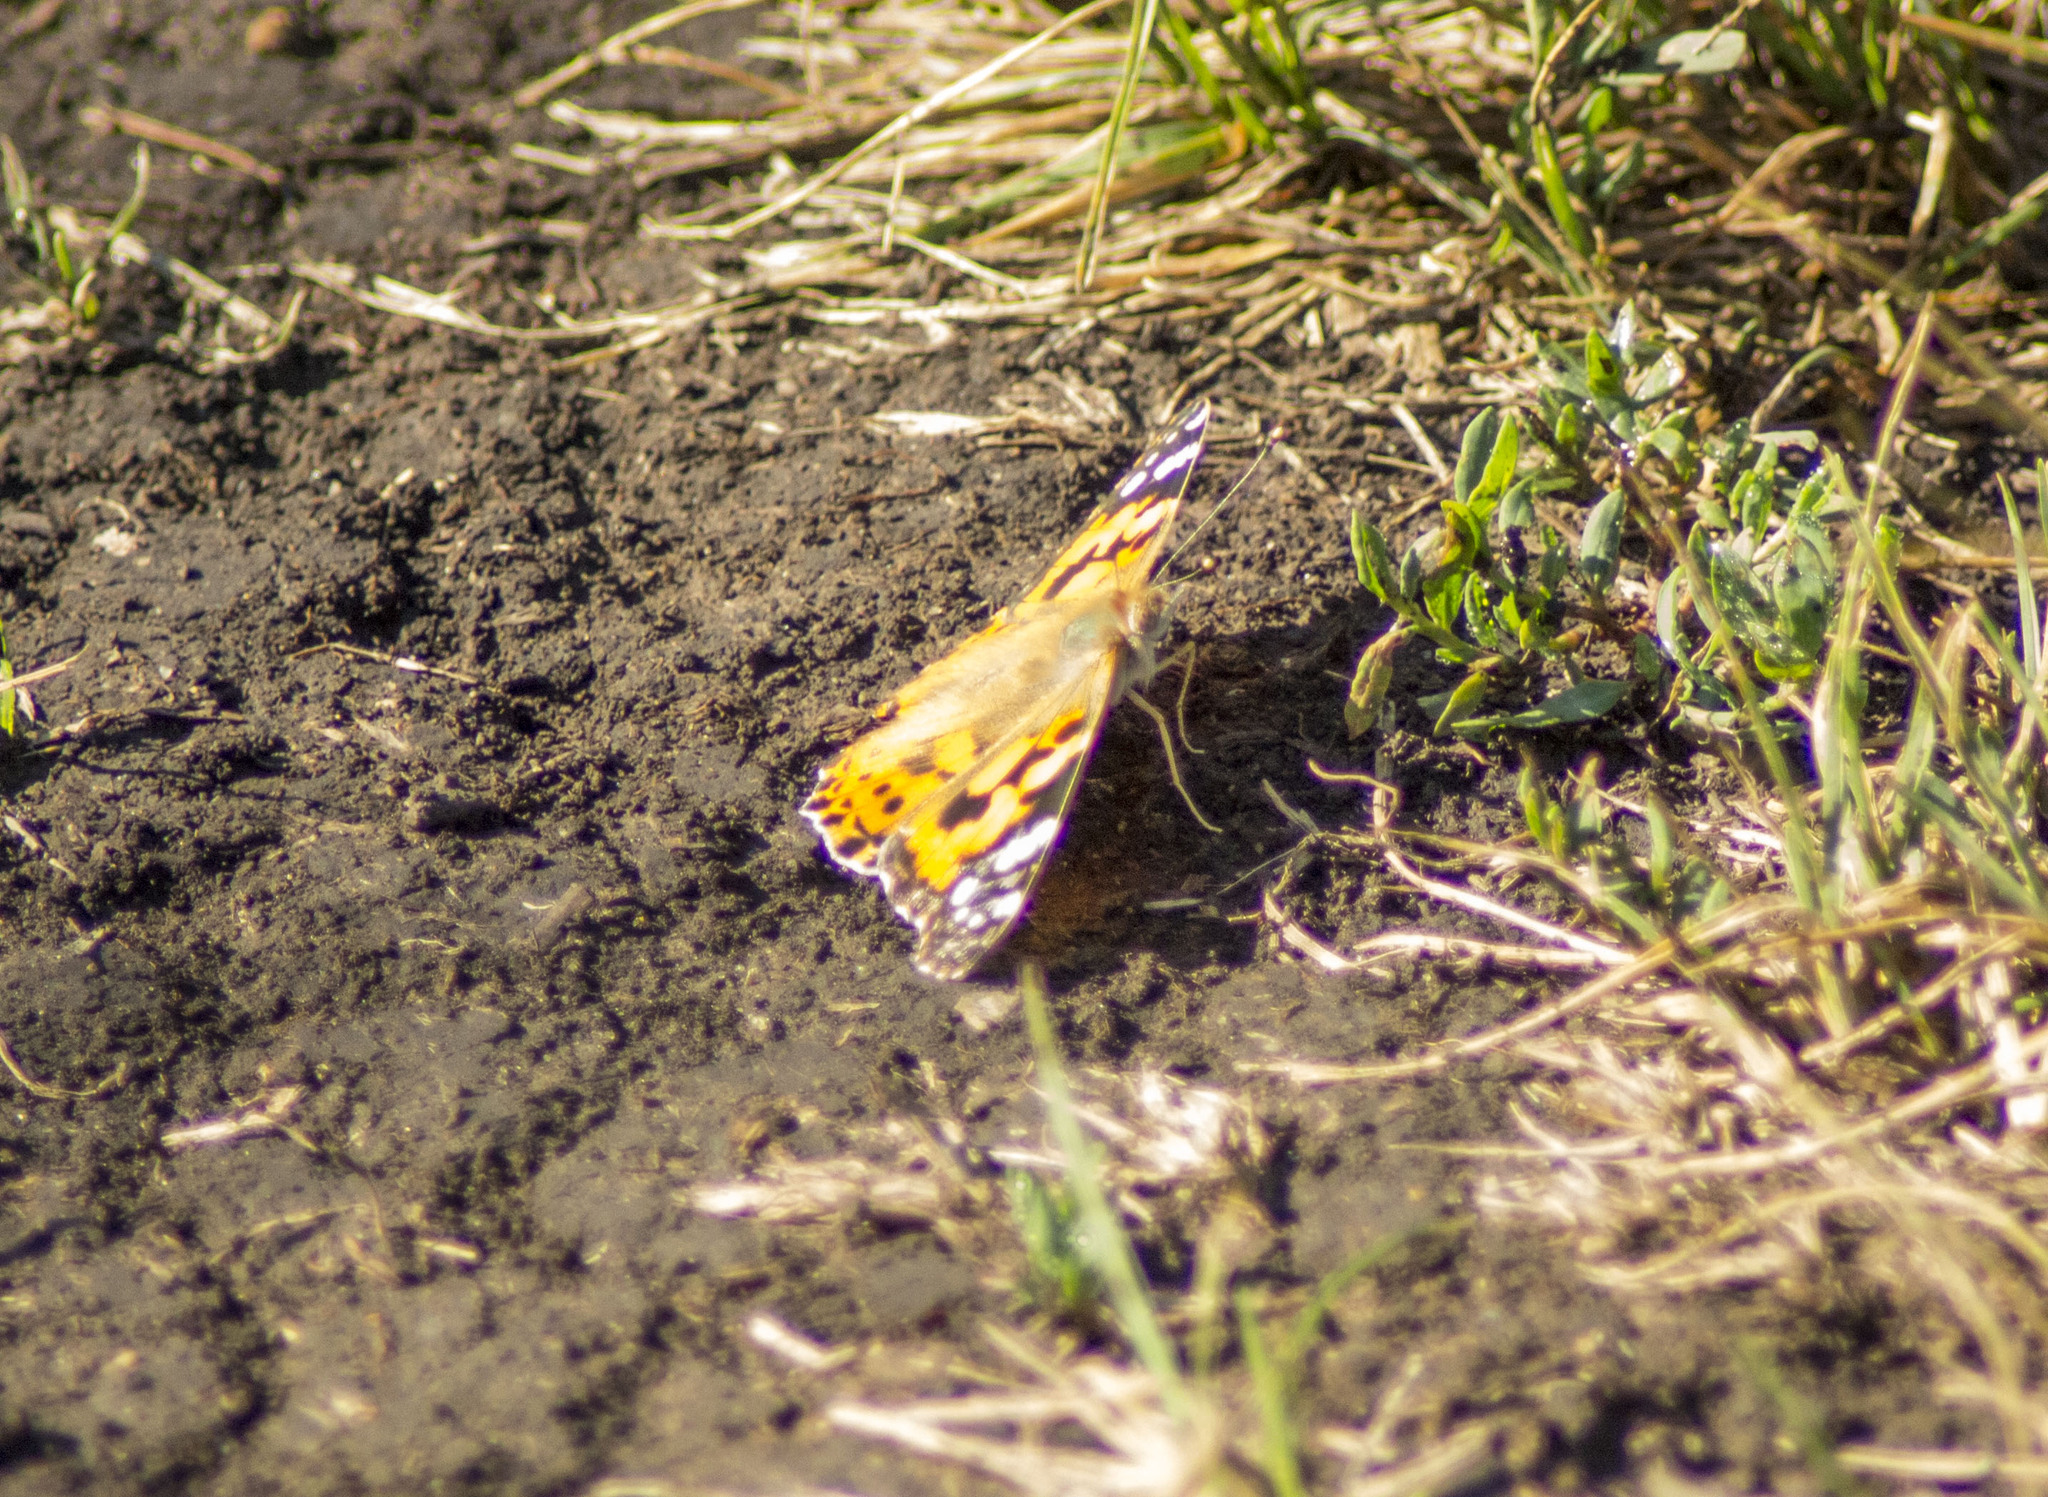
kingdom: Animalia
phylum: Arthropoda
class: Insecta
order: Lepidoptera
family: Nymphalidae
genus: Vanessa
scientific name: Vanessa cardui
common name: Painted lady
